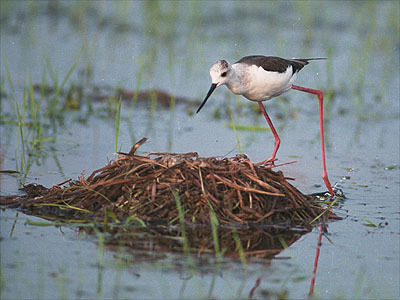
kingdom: Animalia
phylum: Chordata
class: Aves
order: Charadriiformes
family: Recurvirostridae
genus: Himantopus
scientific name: Himantopus himantopus
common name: Black-winged stilt
